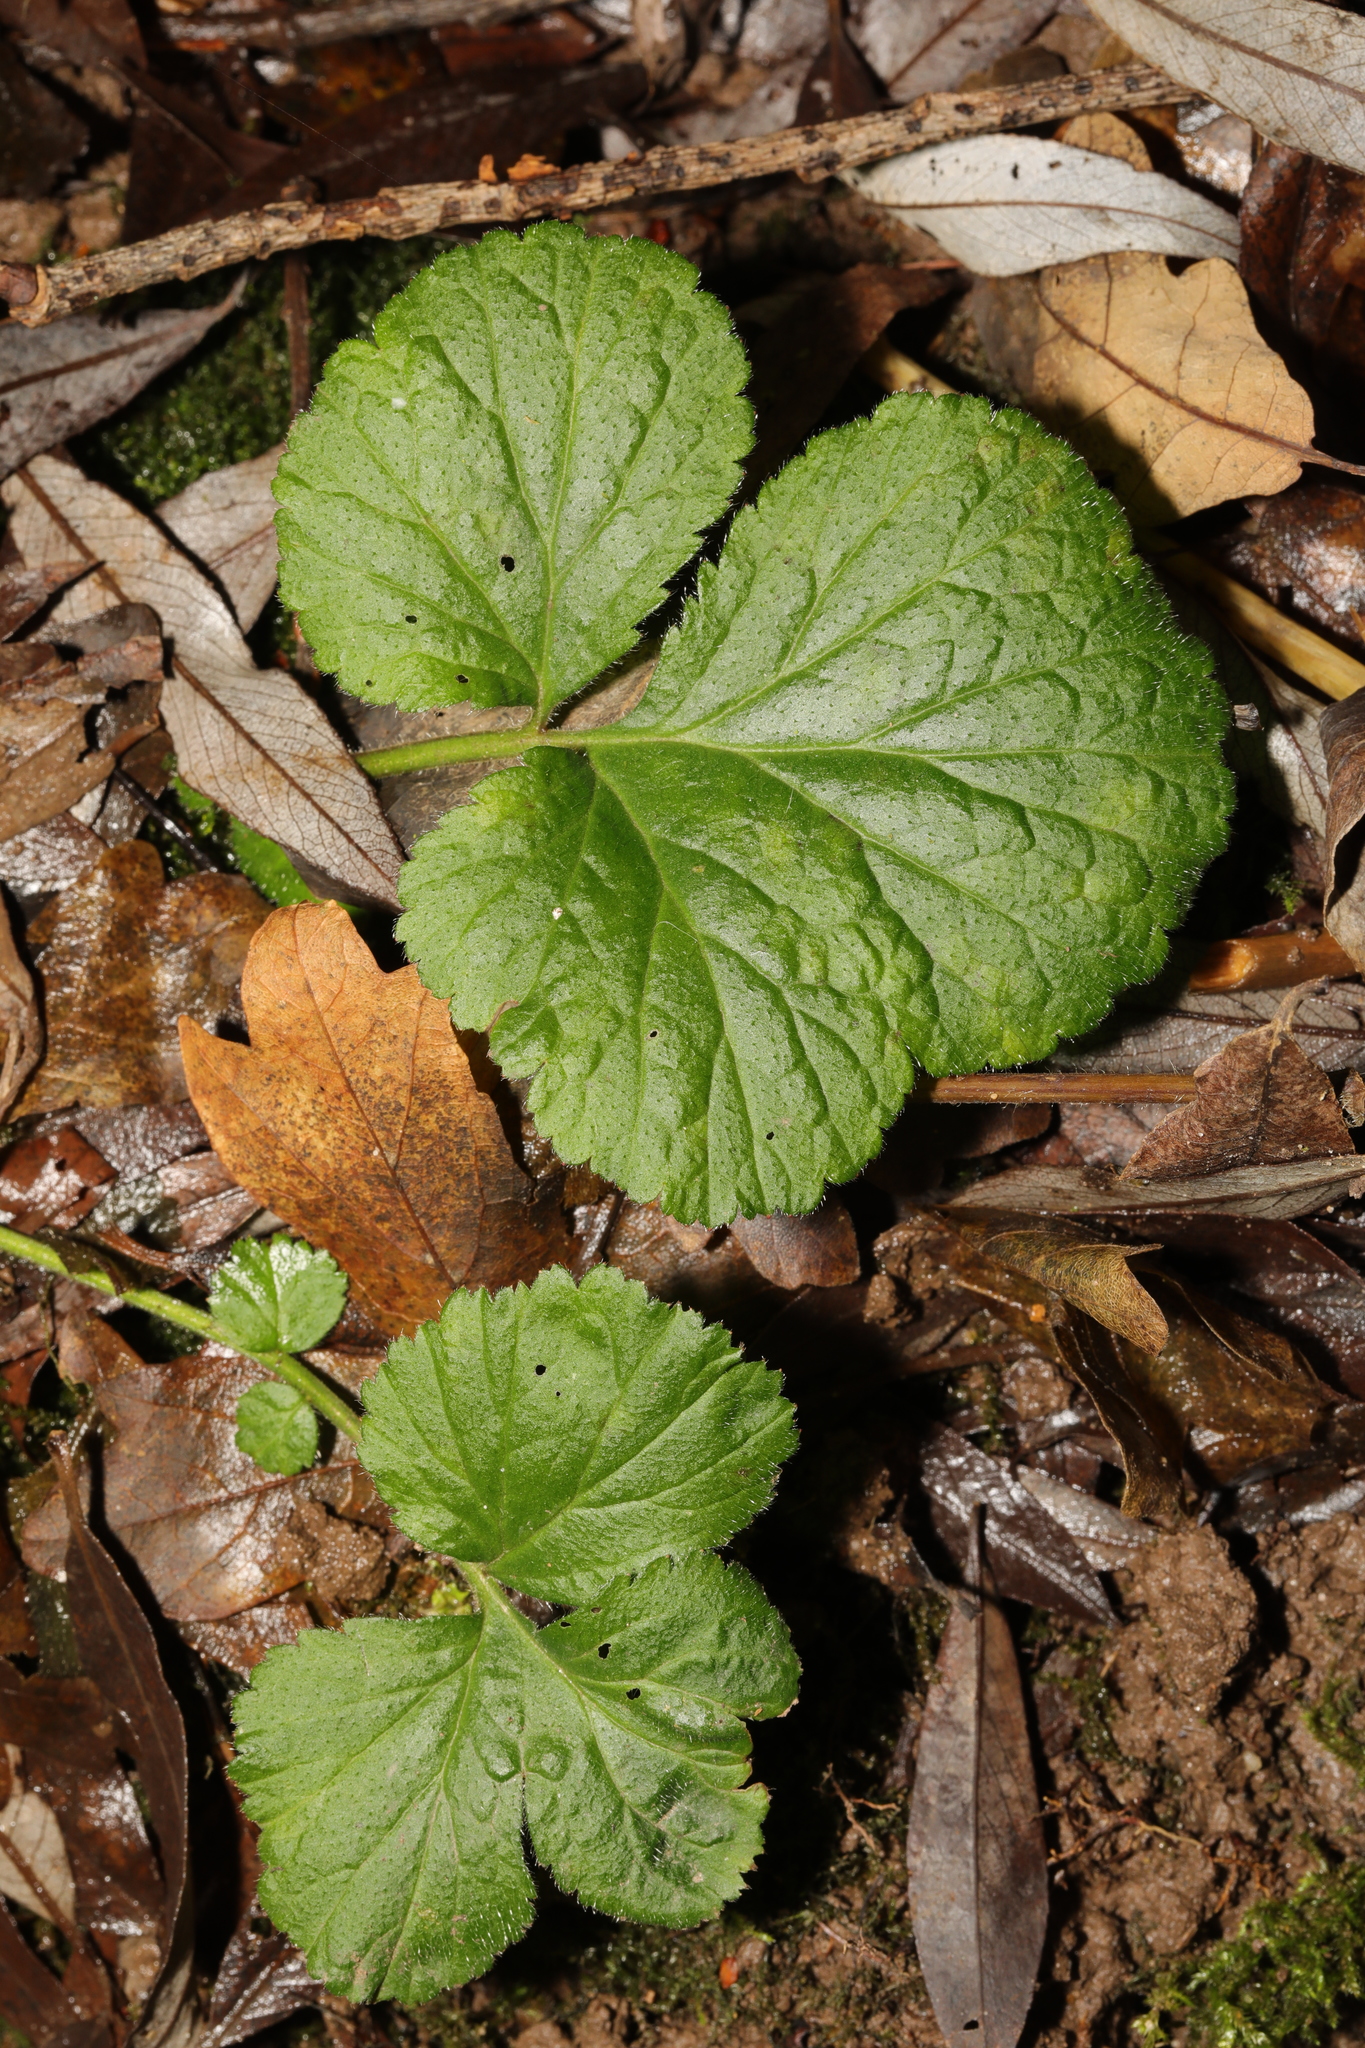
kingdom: Plantae
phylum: Tracheophyta
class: Magnoliopsida
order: Rosales
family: Rosaceae
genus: Geum
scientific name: Geum urbanum
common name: Wood avens
